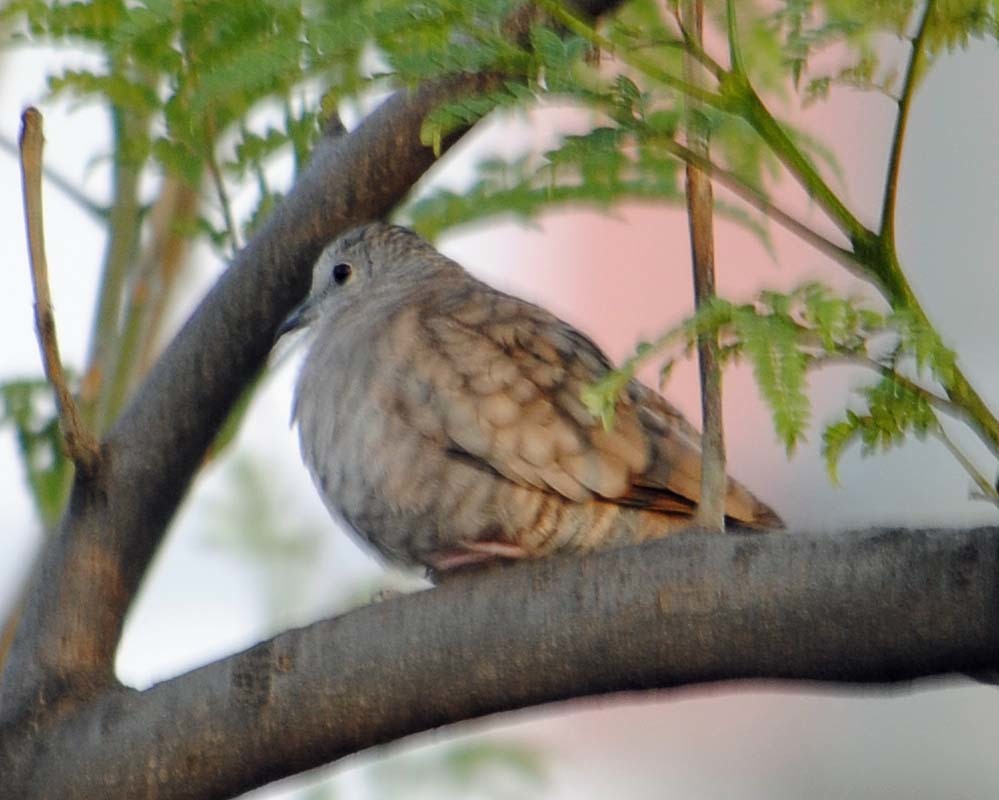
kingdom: Animalia
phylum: Chordata
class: Aves
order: Columbiformes
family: Columbidae
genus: Columbina
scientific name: Columbina inca
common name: Inca dove
